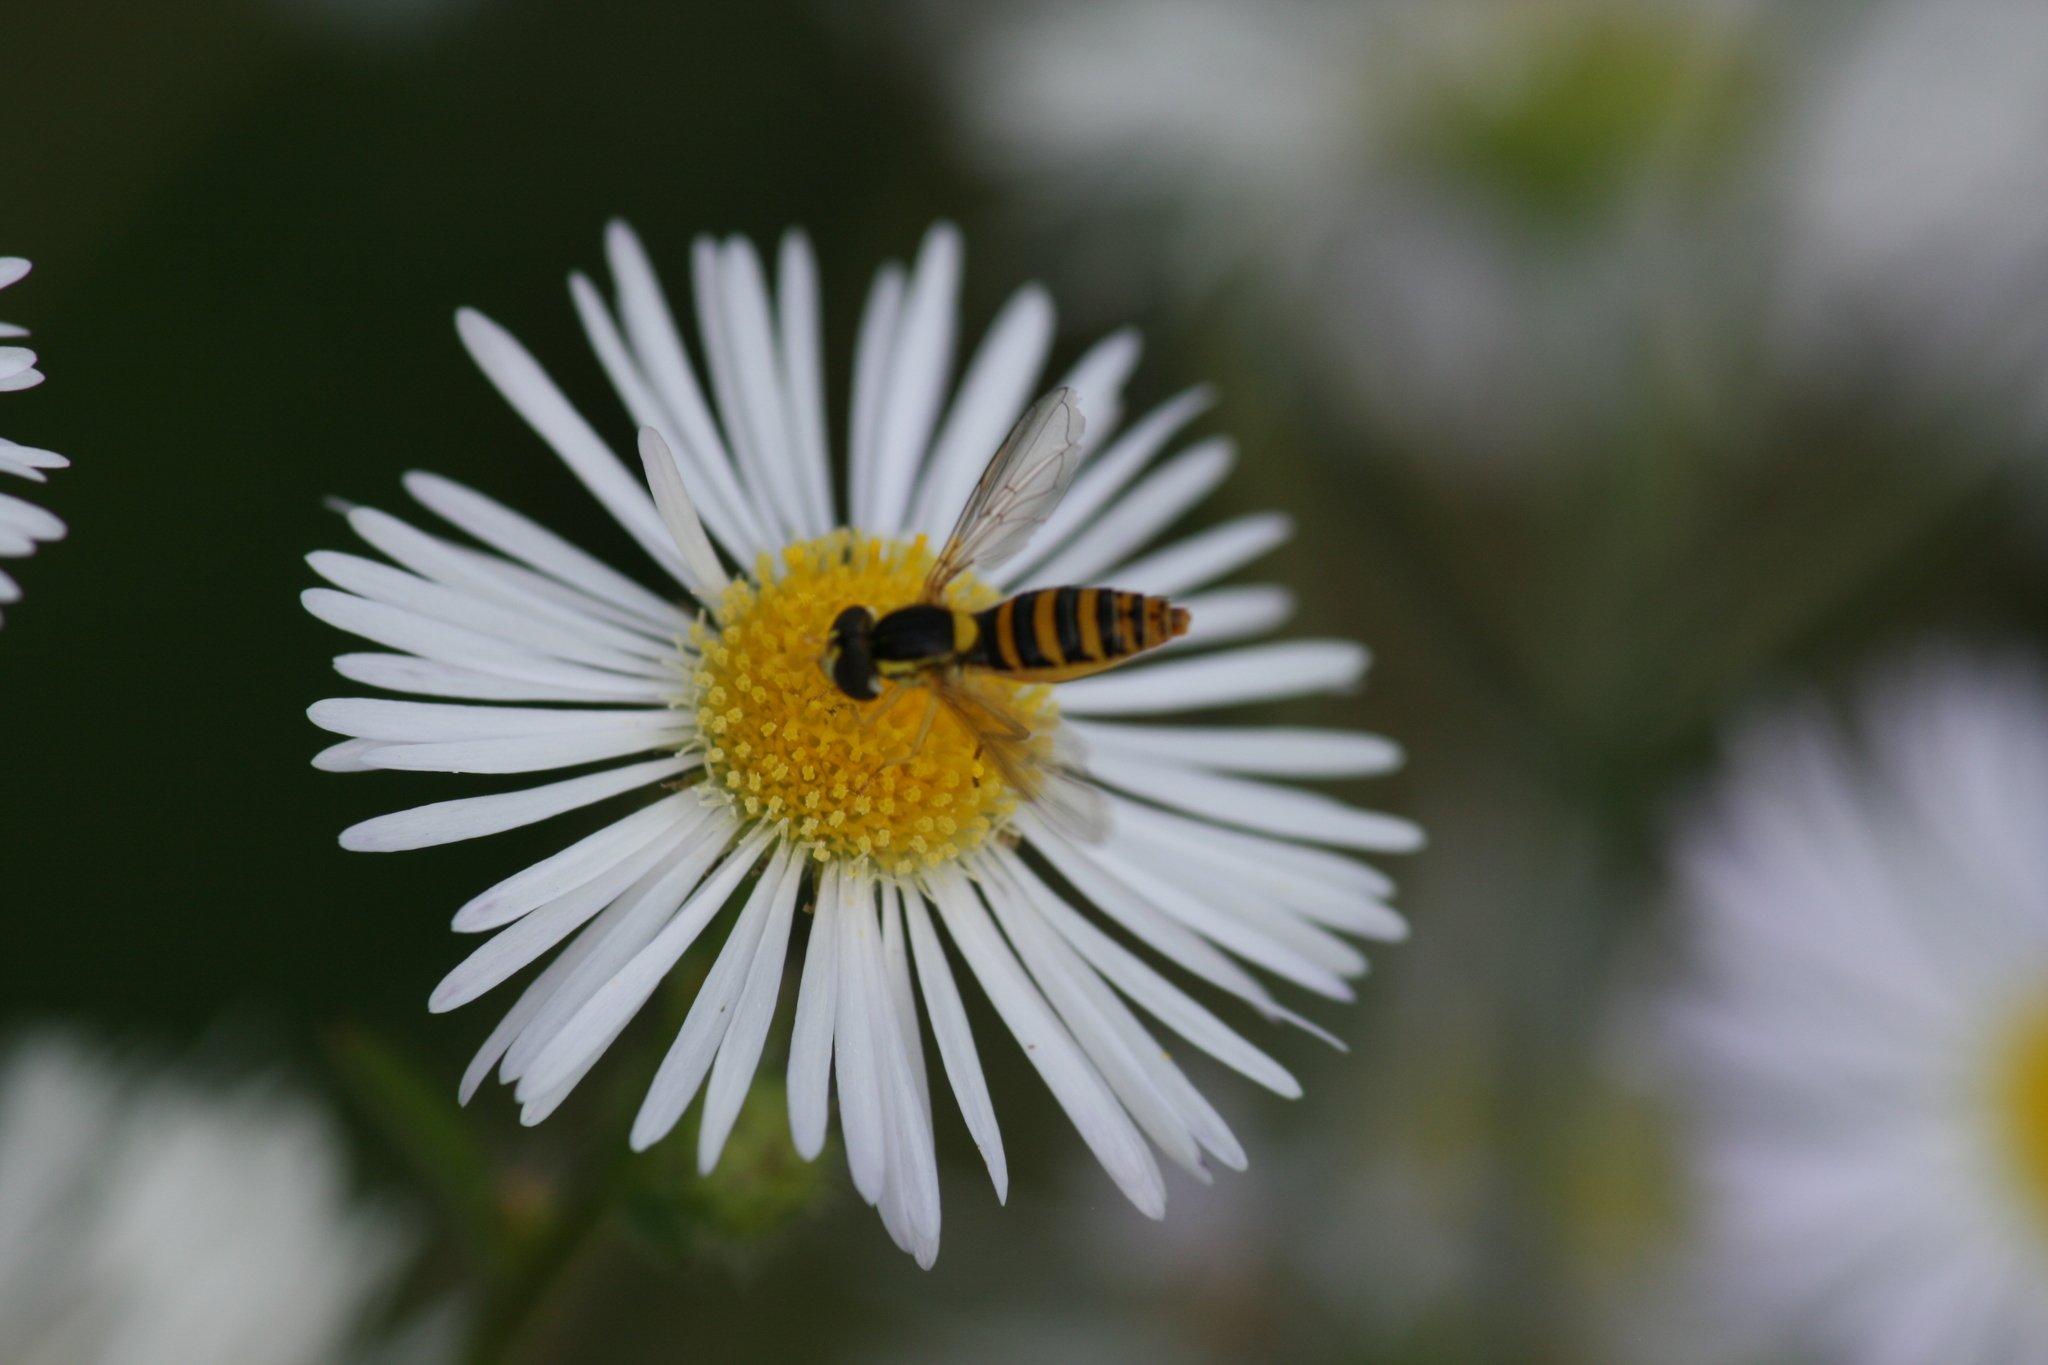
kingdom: Animalia
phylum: Arthropoda
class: Insecta
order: Diptera
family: Syrphidae
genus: Sphaerophoria
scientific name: Sphaerophoria
